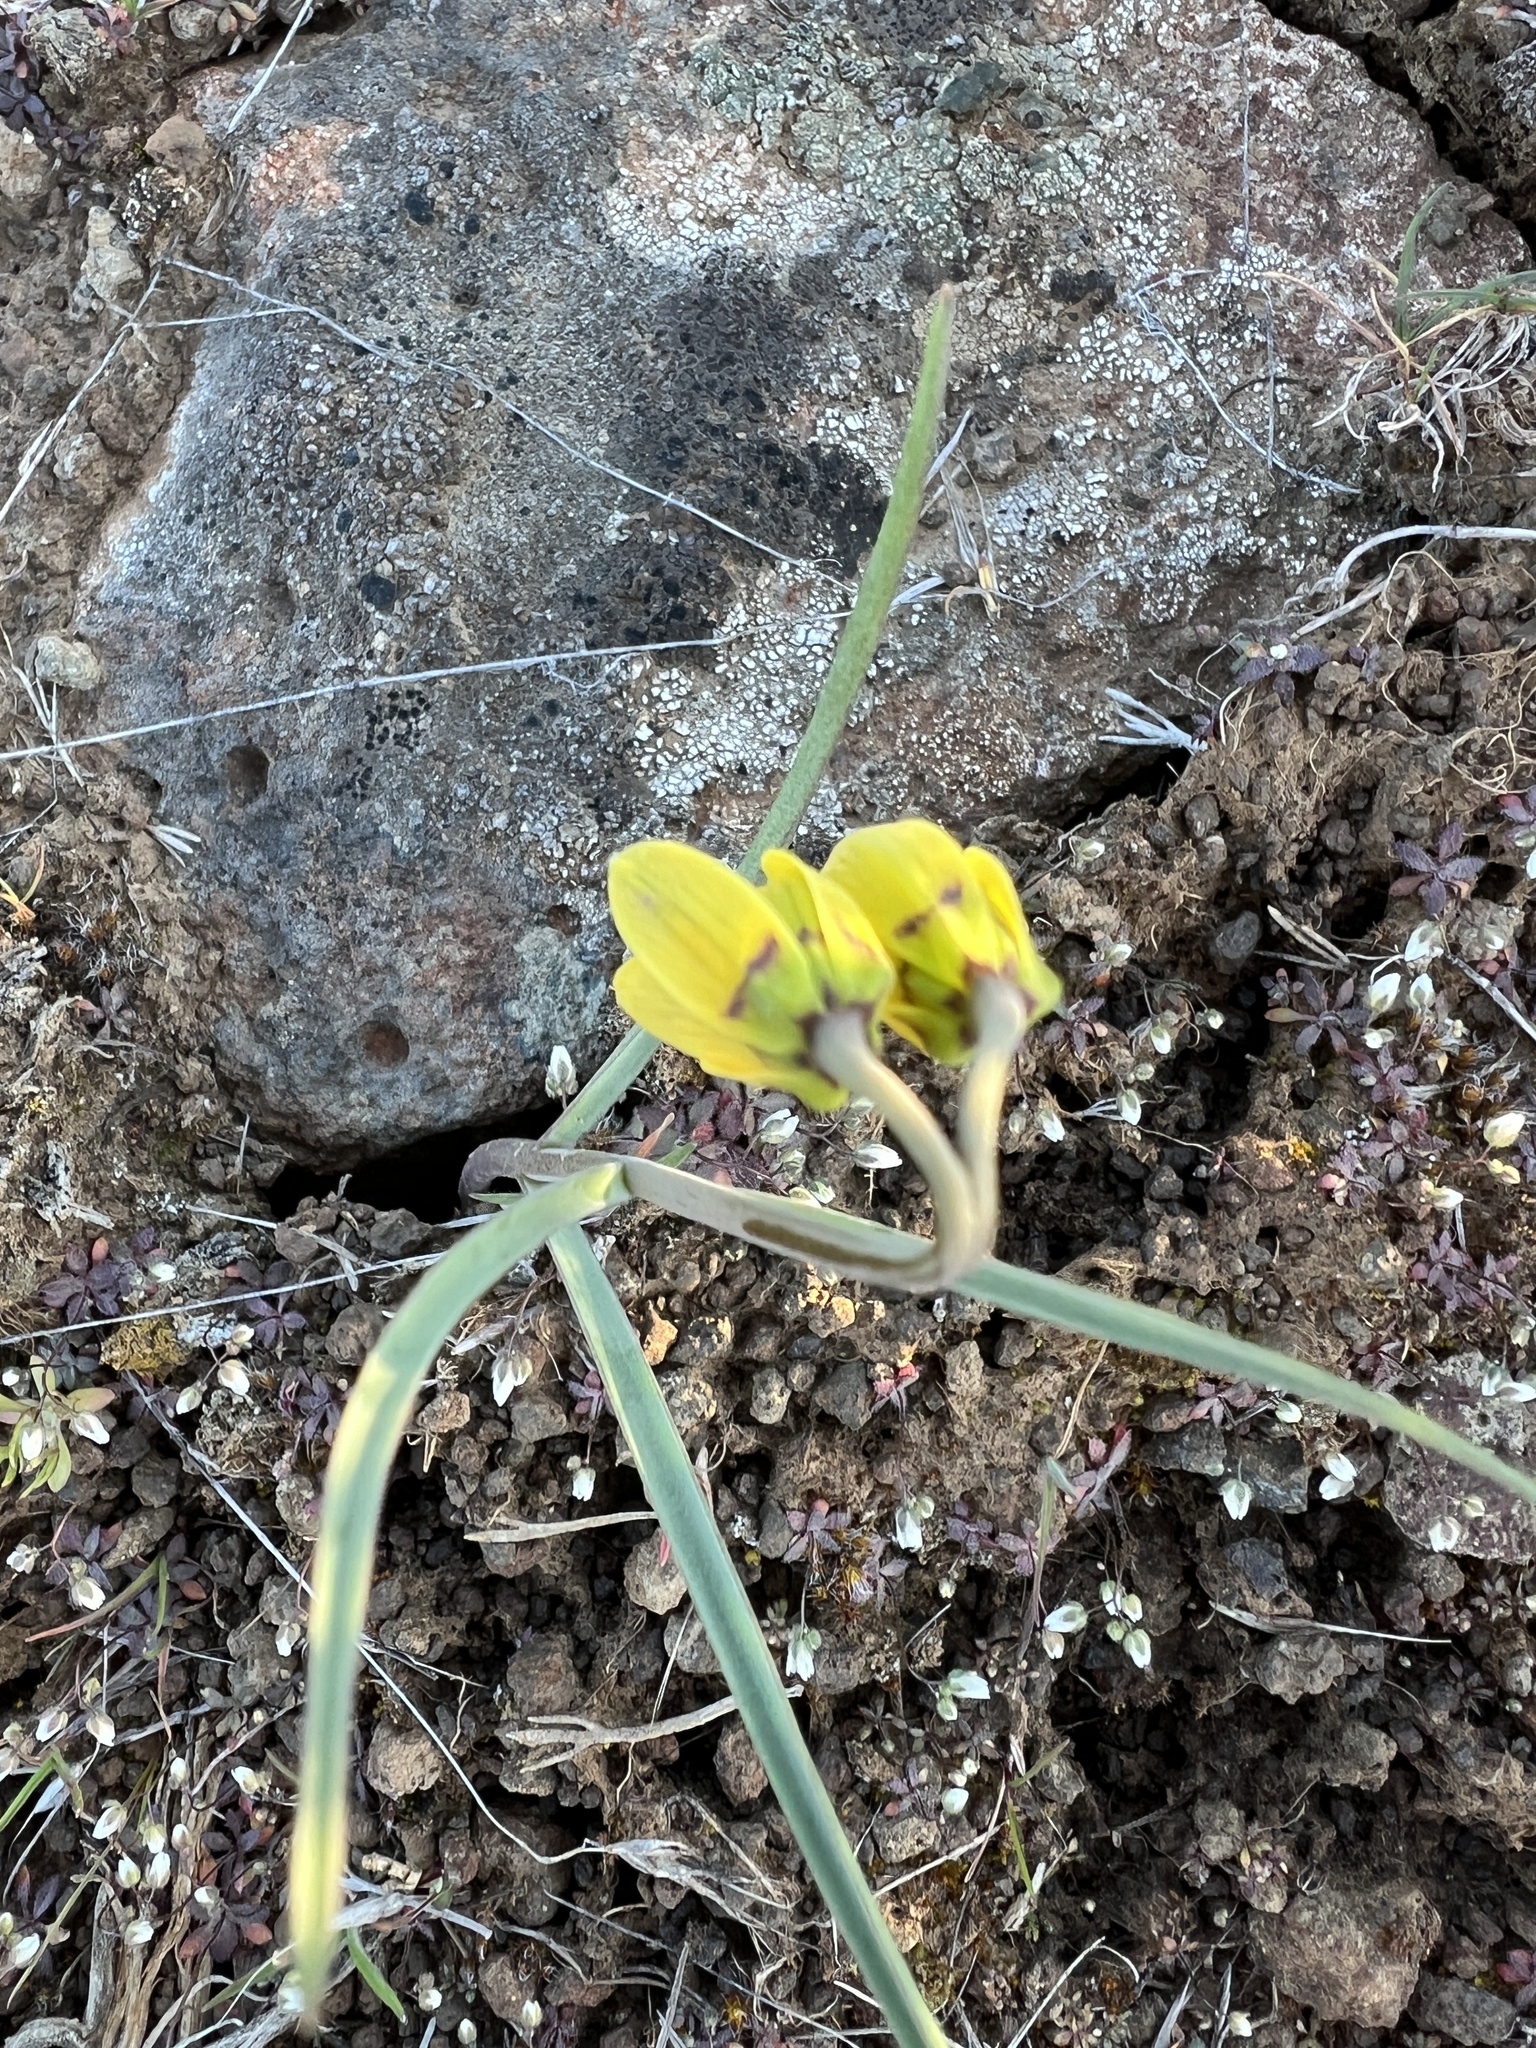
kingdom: Plantae
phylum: Tracheophyta
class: Liliopsida
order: Liliales
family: Liliaceae
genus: Fritillaria
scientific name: Fritillaria pudica
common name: Yellow fritillary
